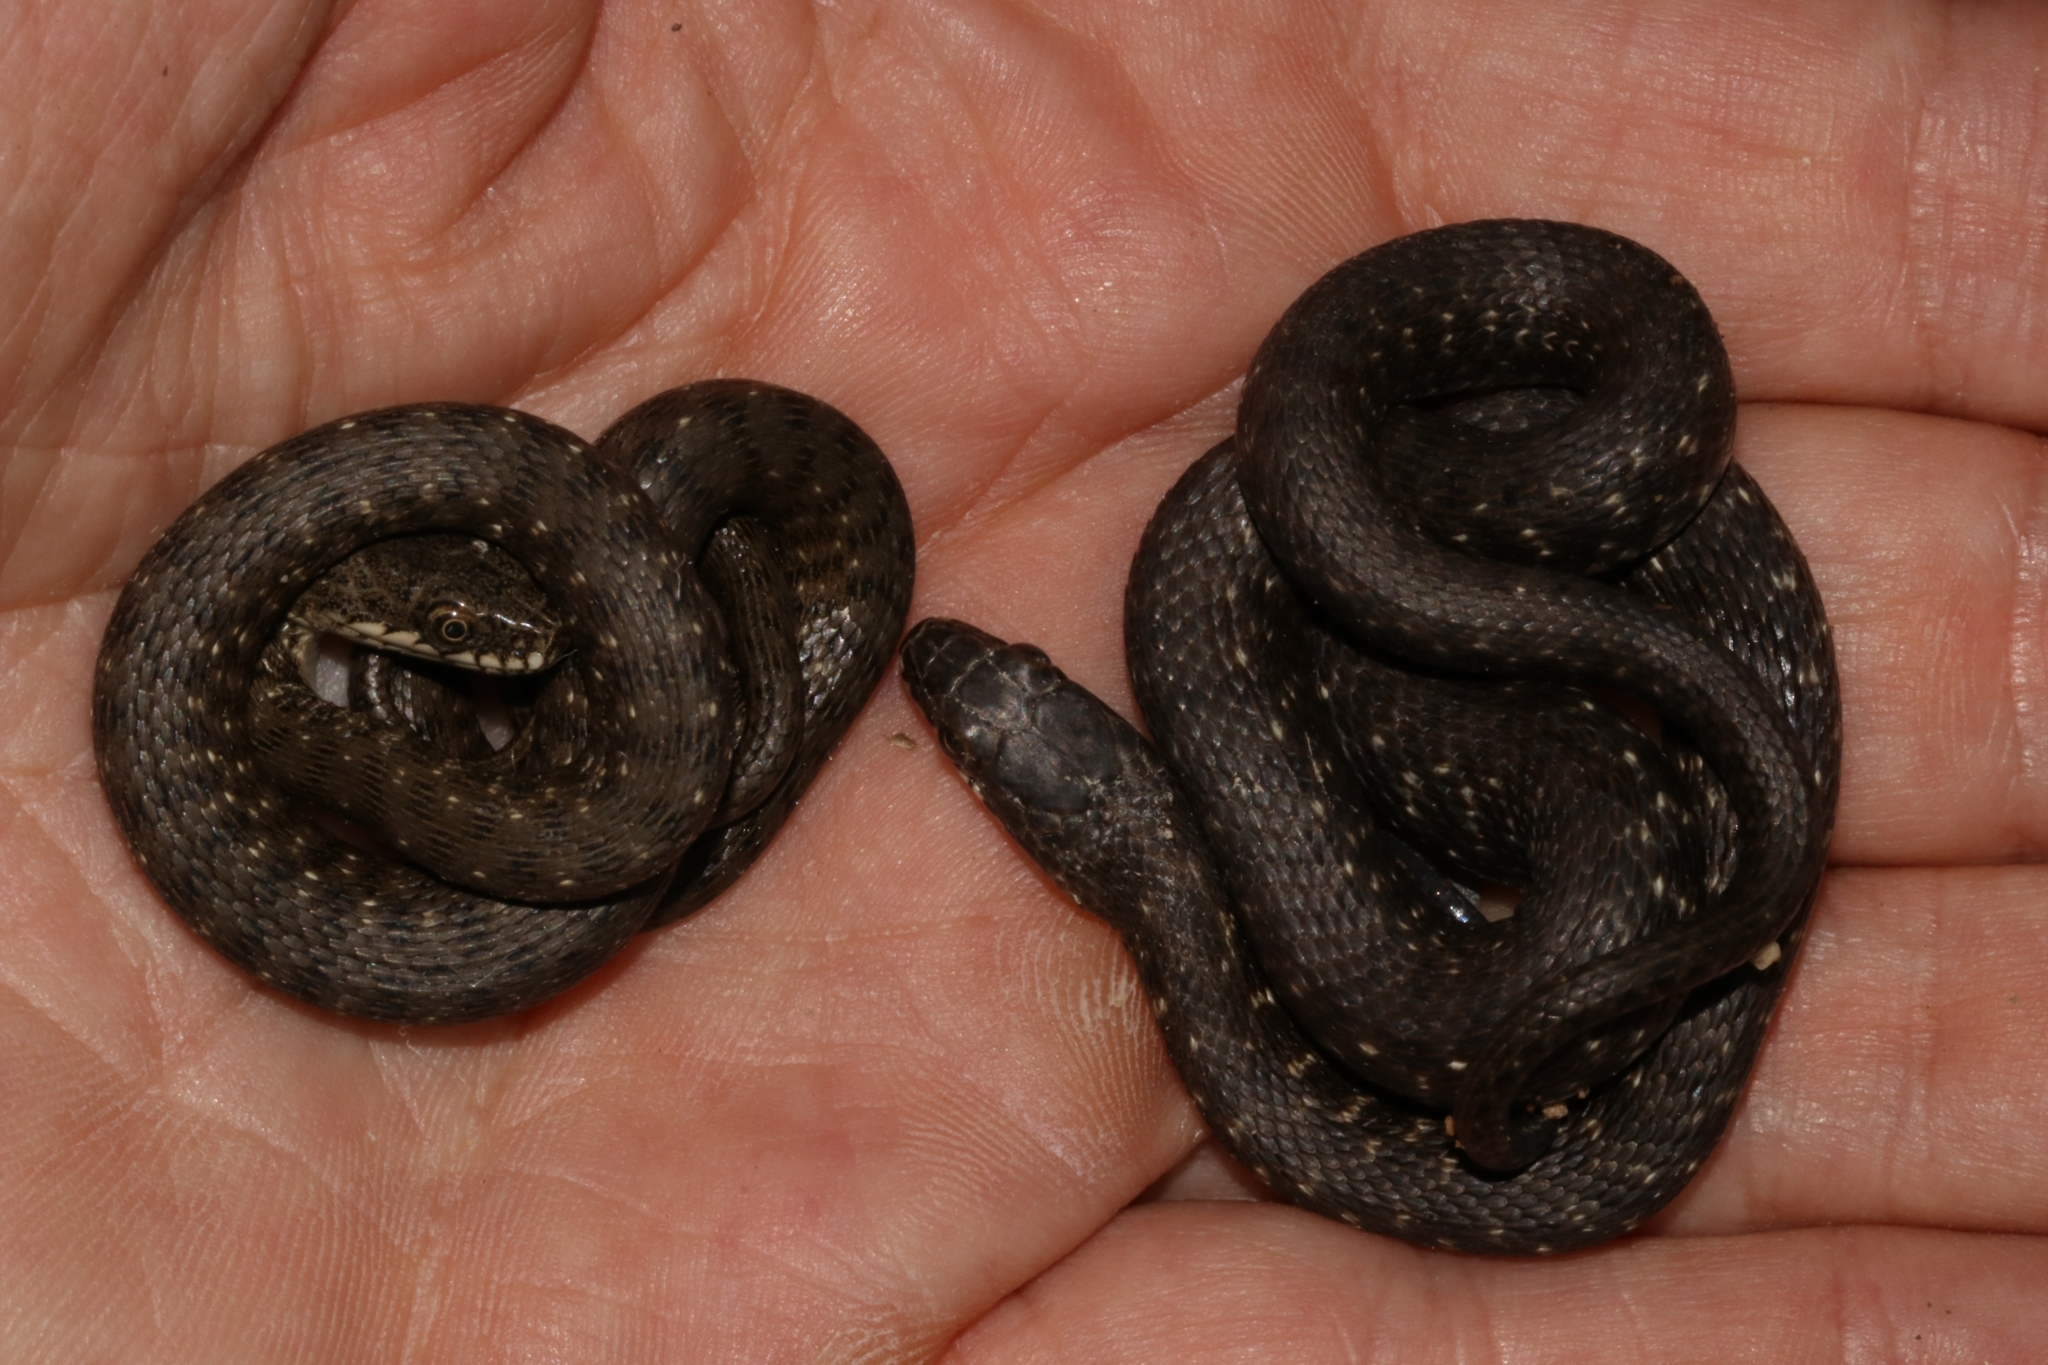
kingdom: Animalia
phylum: Chordata
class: Squamata
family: Colubridae
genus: Natrix
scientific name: Natrix tessellata
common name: Dice snake
